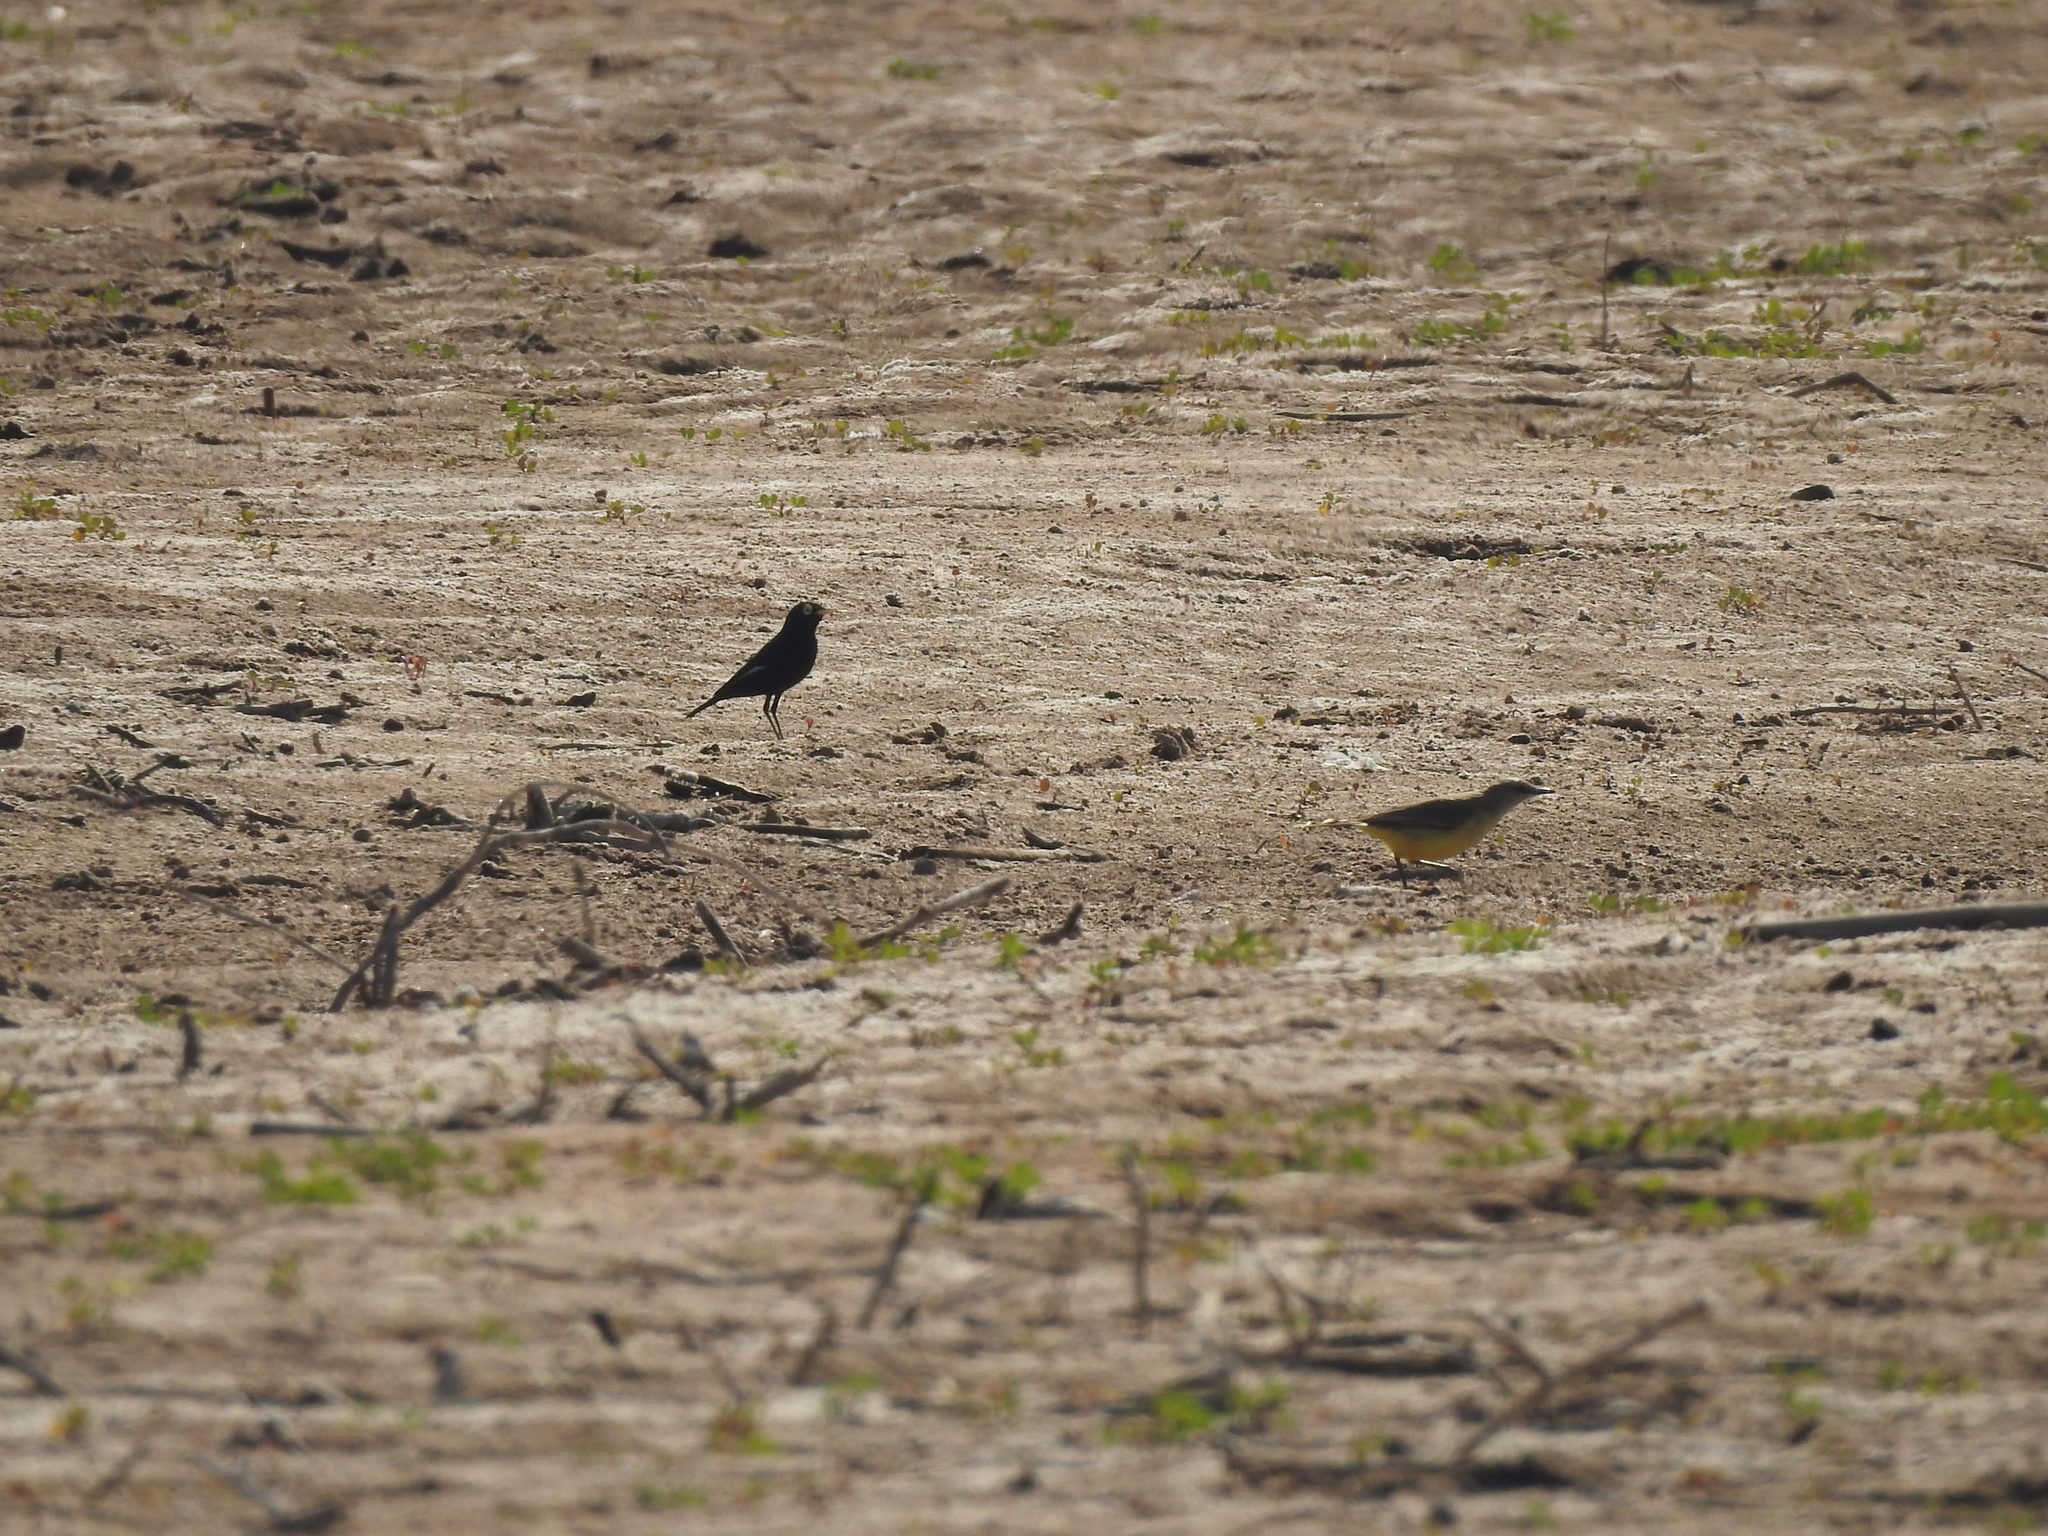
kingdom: Animalia
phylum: Chordata
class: Aves
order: Passeriformes
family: Tyrannidae
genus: Hymenops
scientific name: Hymenops perspicillatus
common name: Spectacled tyrant
